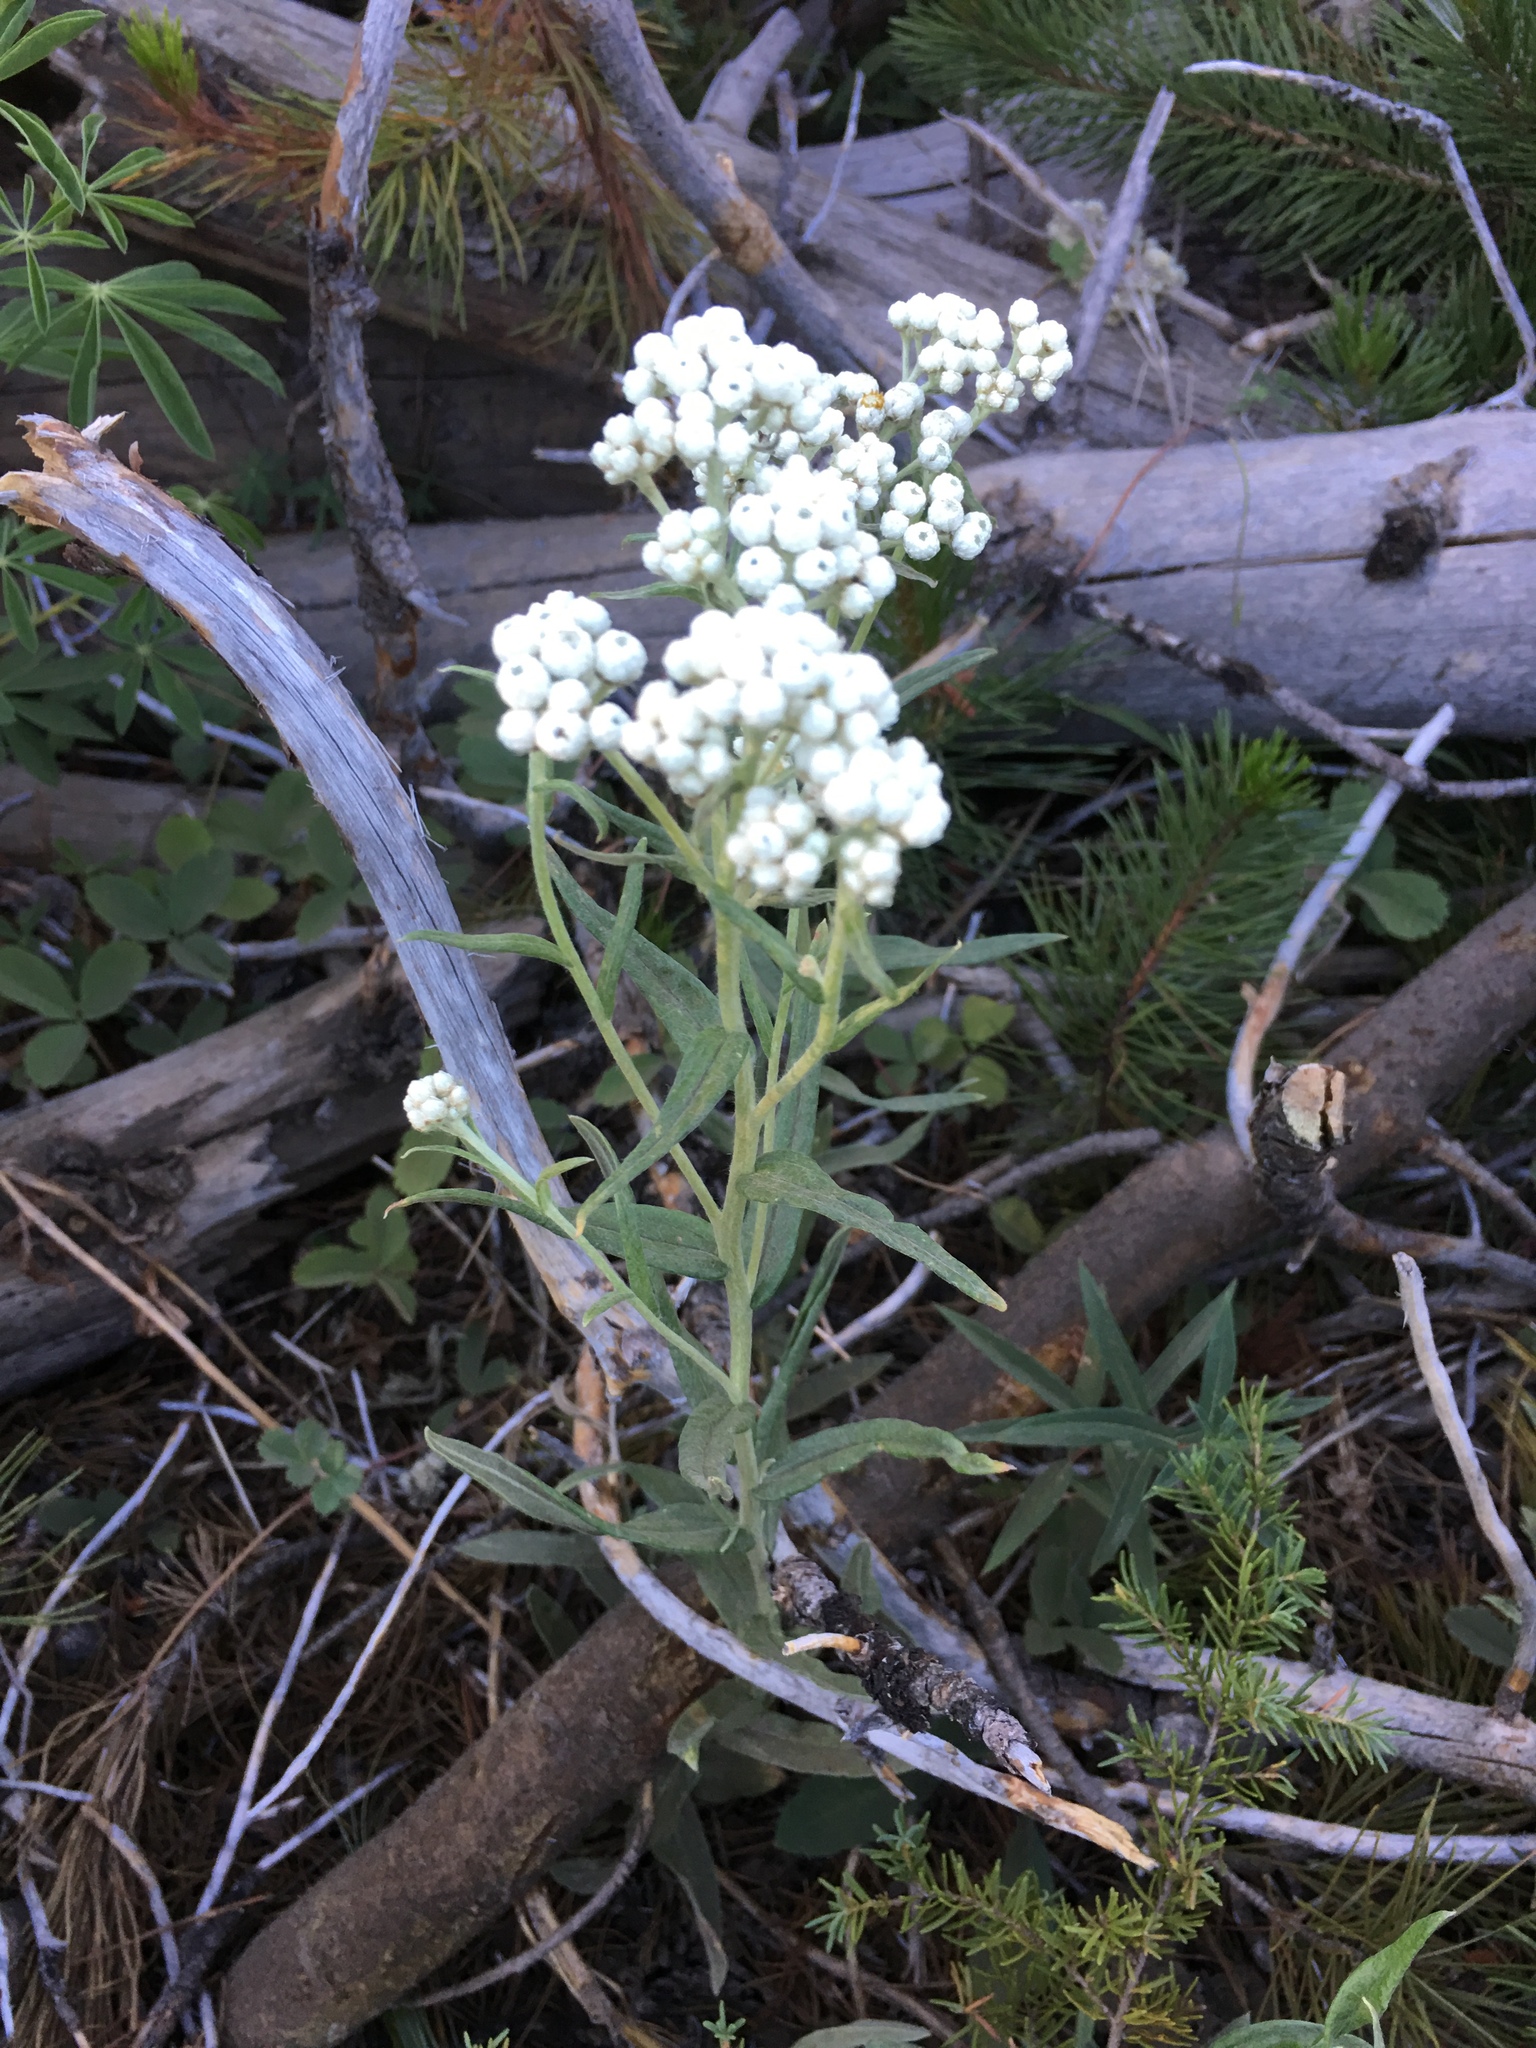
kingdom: Plantae
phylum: Tracheophyta
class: Magnoliopsida
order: Asterales
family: Asteraceae
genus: Anaphalis
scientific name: Anaphalis margaritacea
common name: Pearly everlasting
